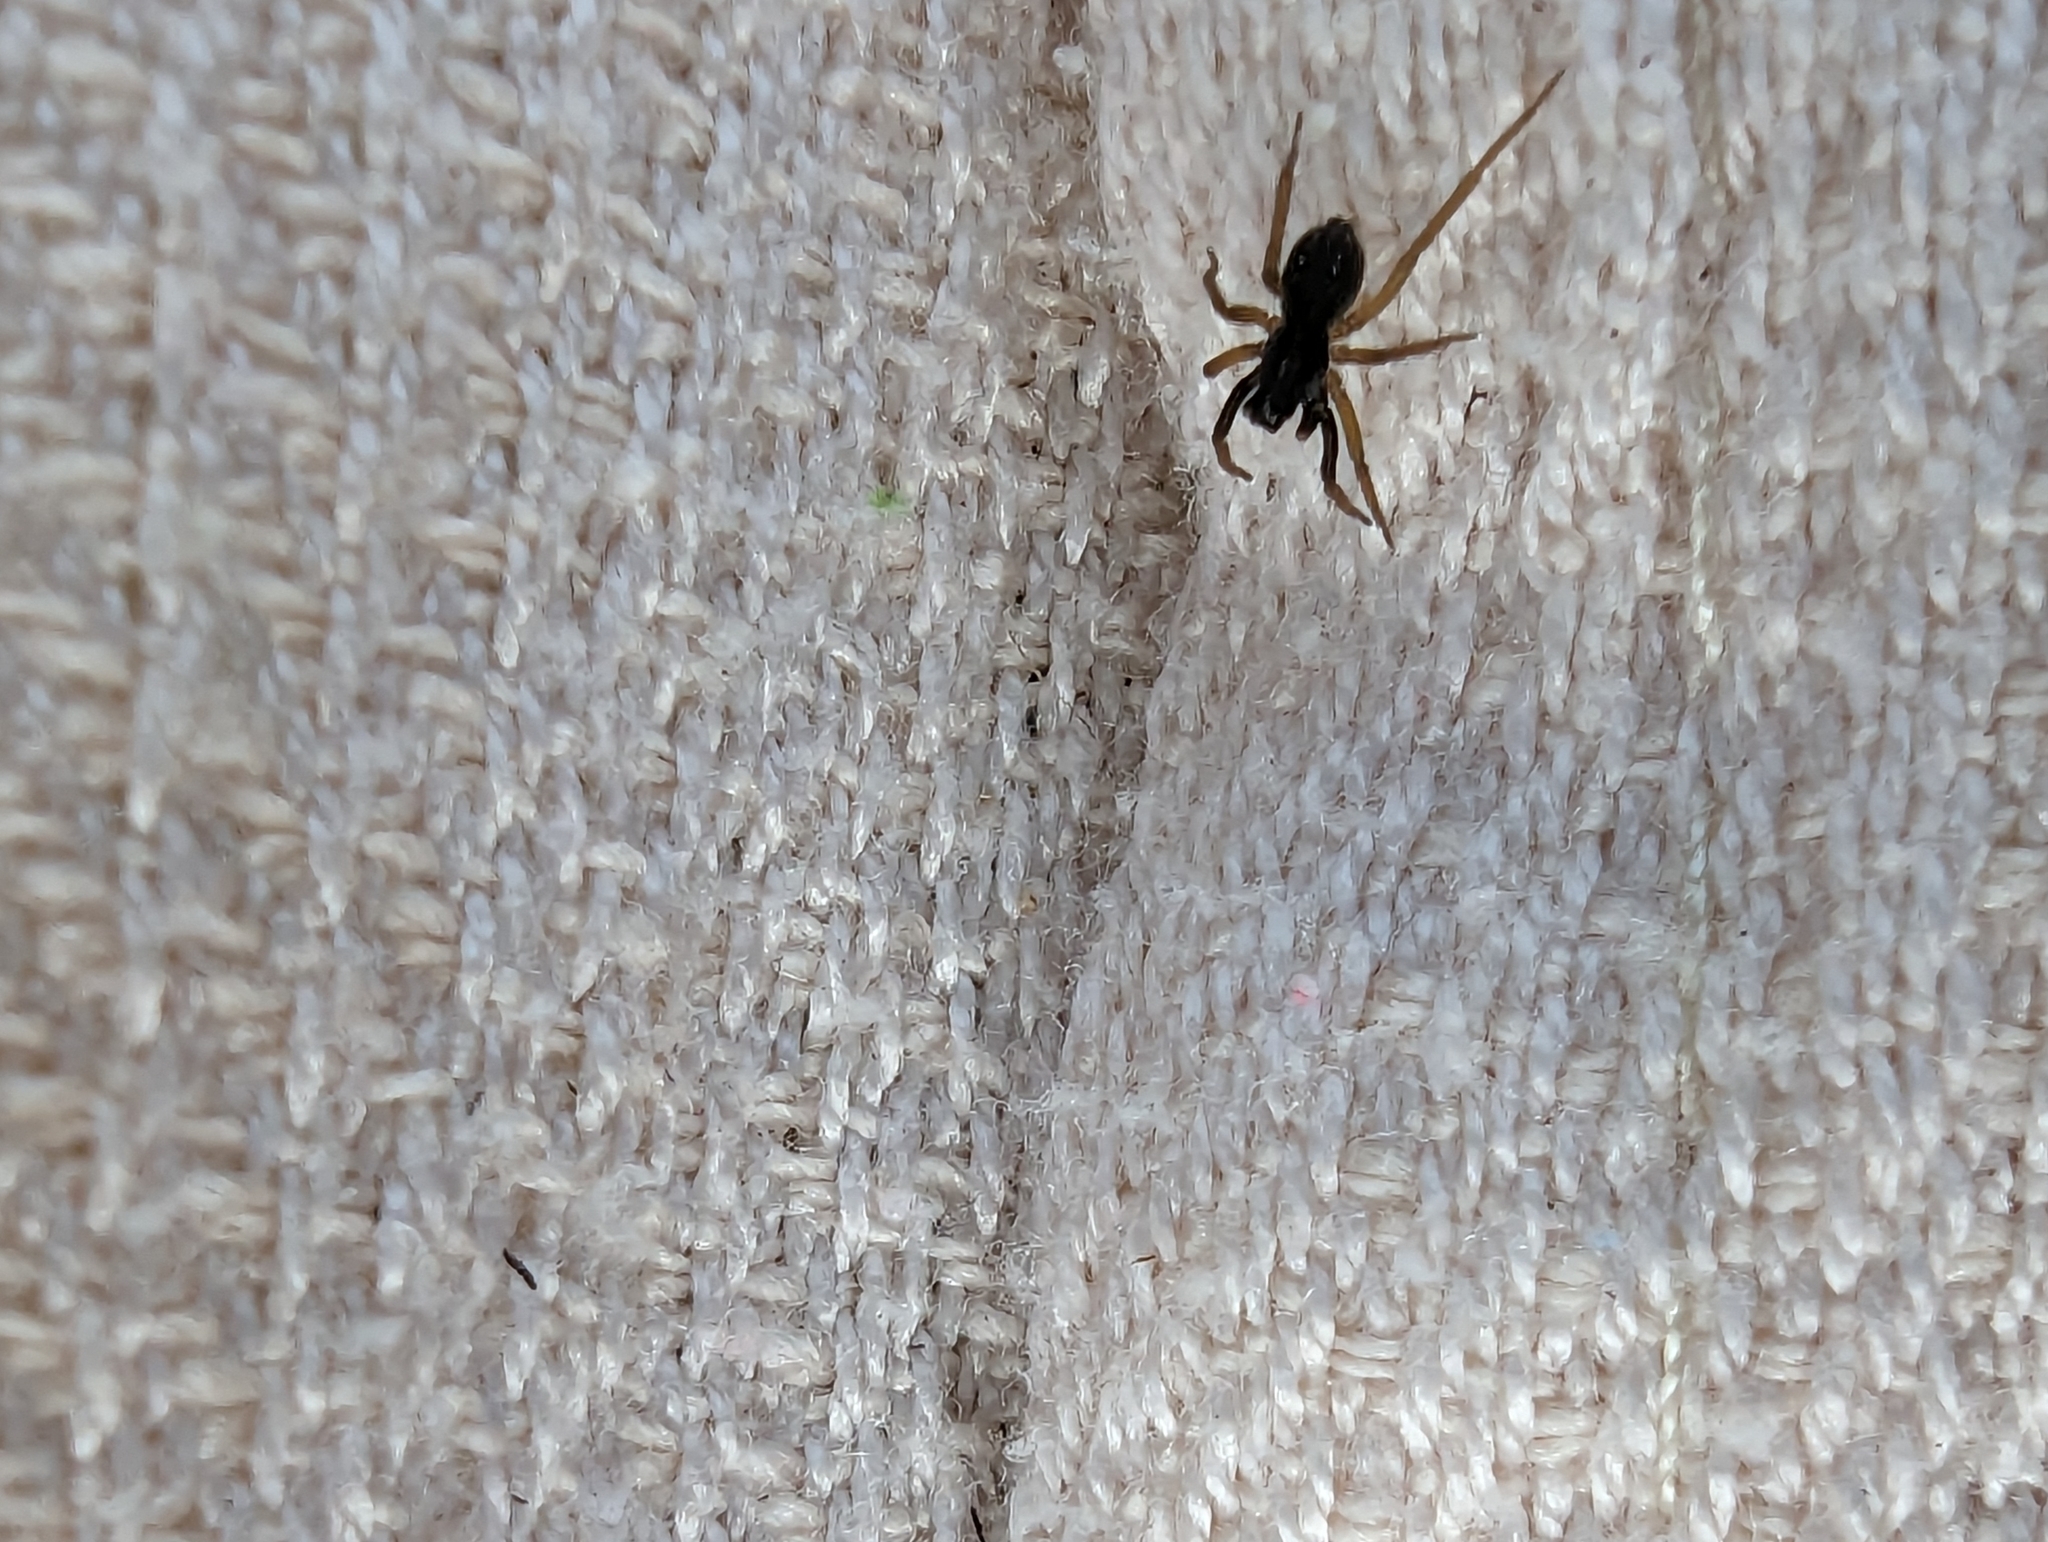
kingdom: Animalia
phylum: Arthropoda
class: Arachnida
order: Araneae
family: Lycosidae
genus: Aulonia
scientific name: Aulonia albimana
